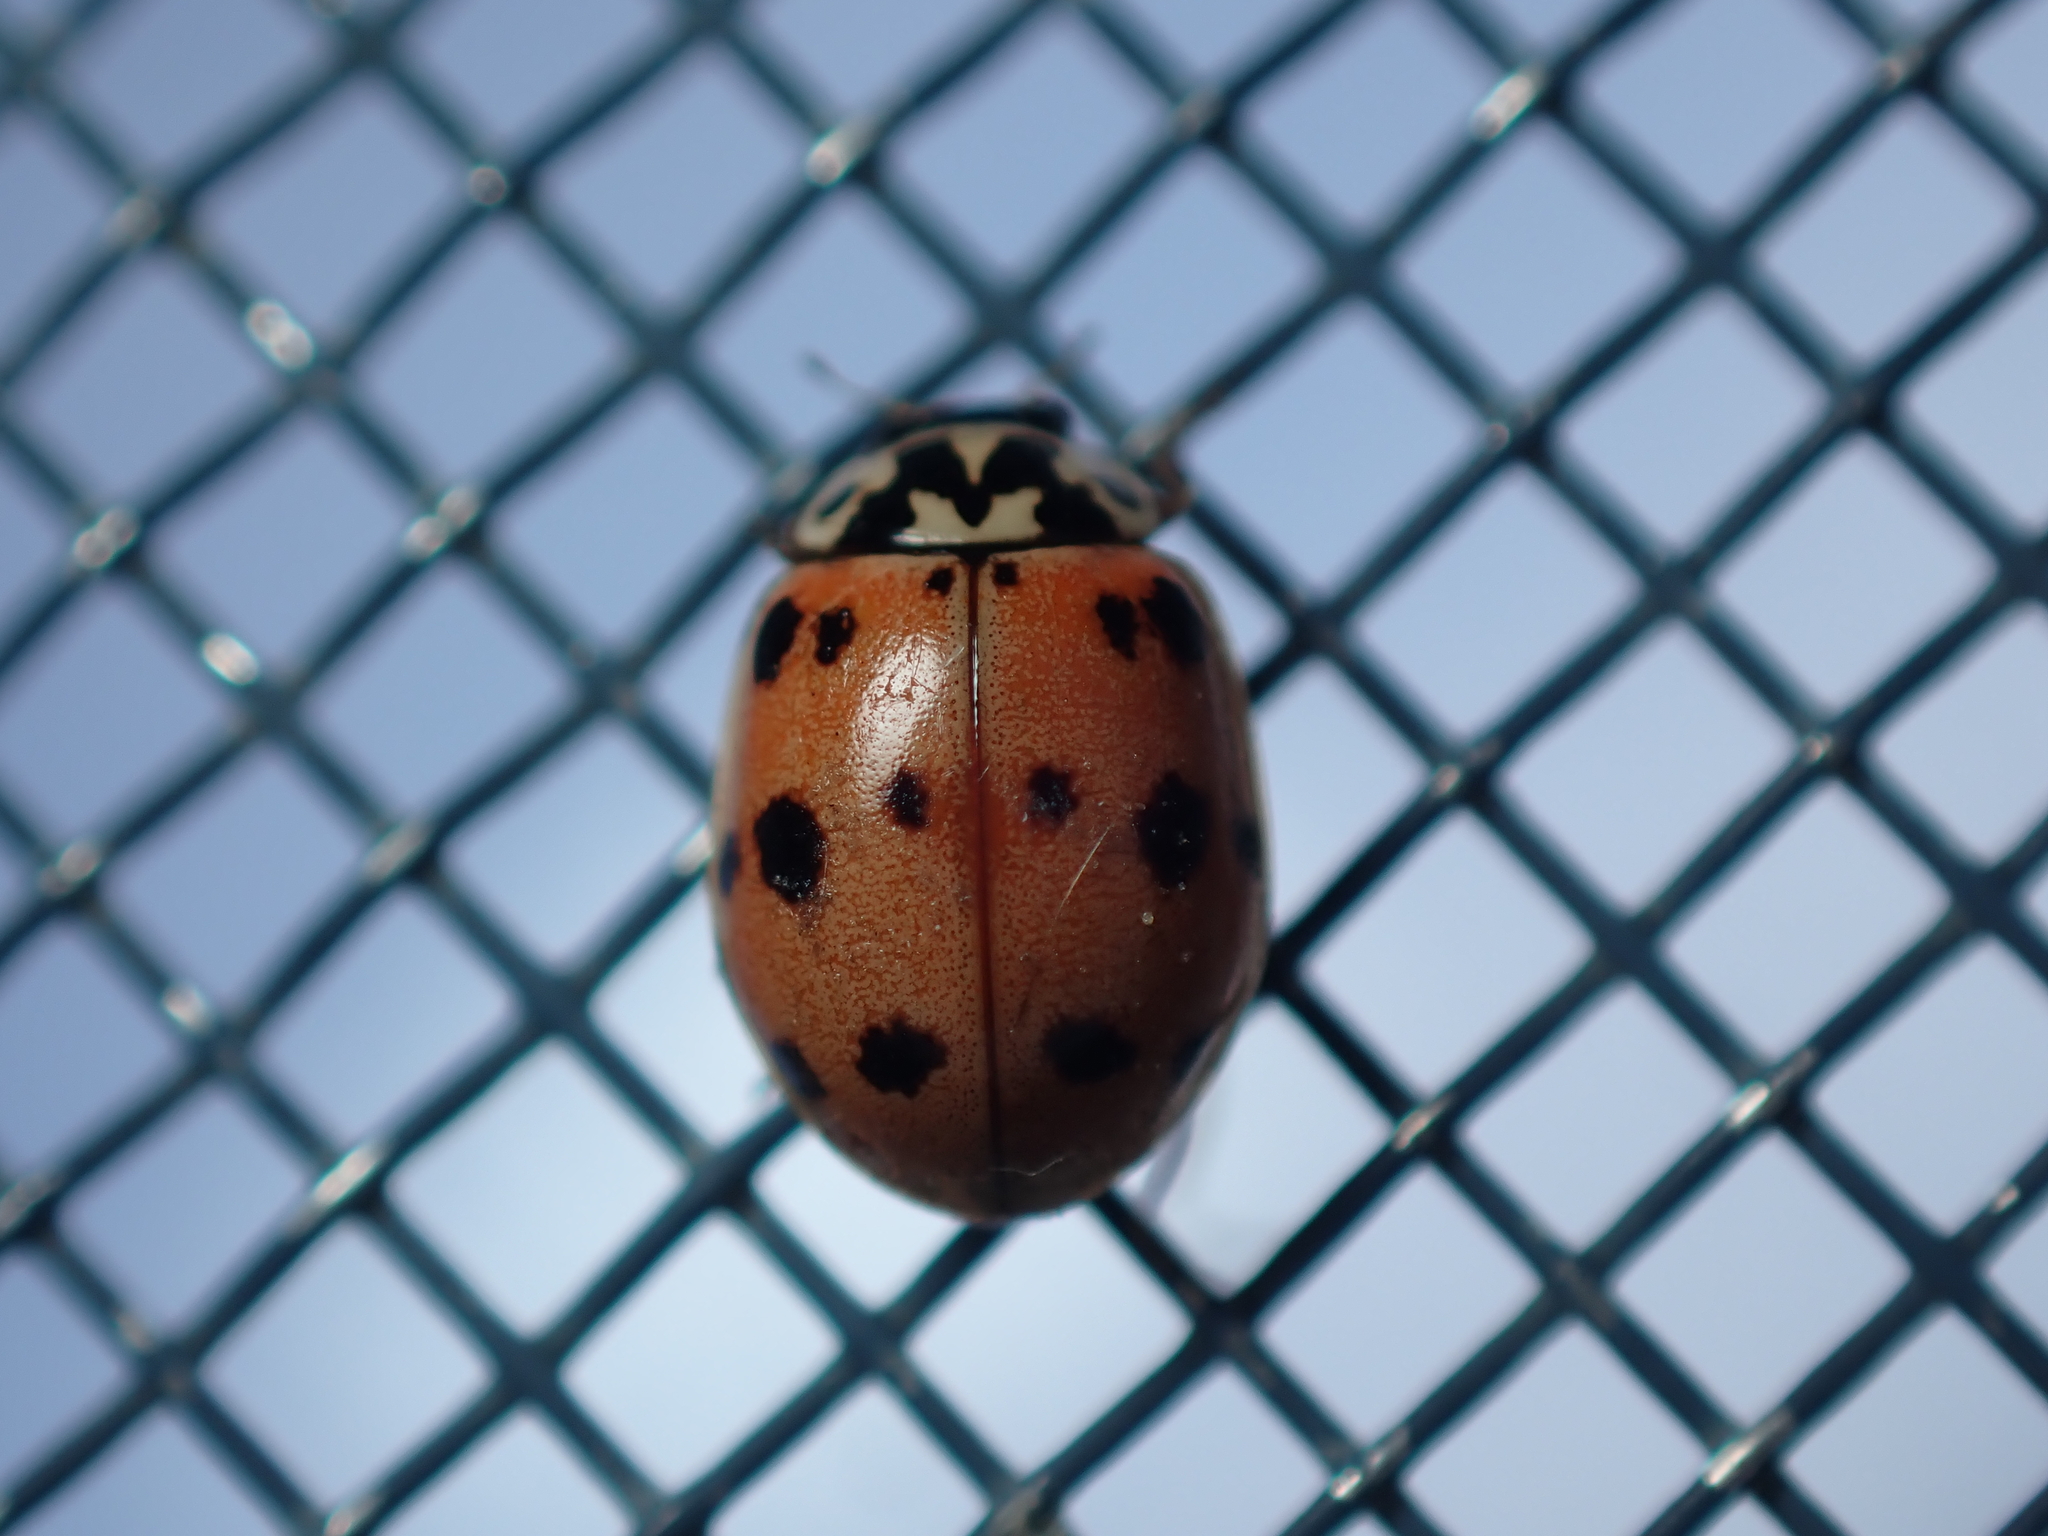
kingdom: Animalia
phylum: Arthropoda
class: Insecta
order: Coleoptera
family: Coccinellidae
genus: Adalia
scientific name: Adalia bipunctata
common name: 2-spot ladybird
